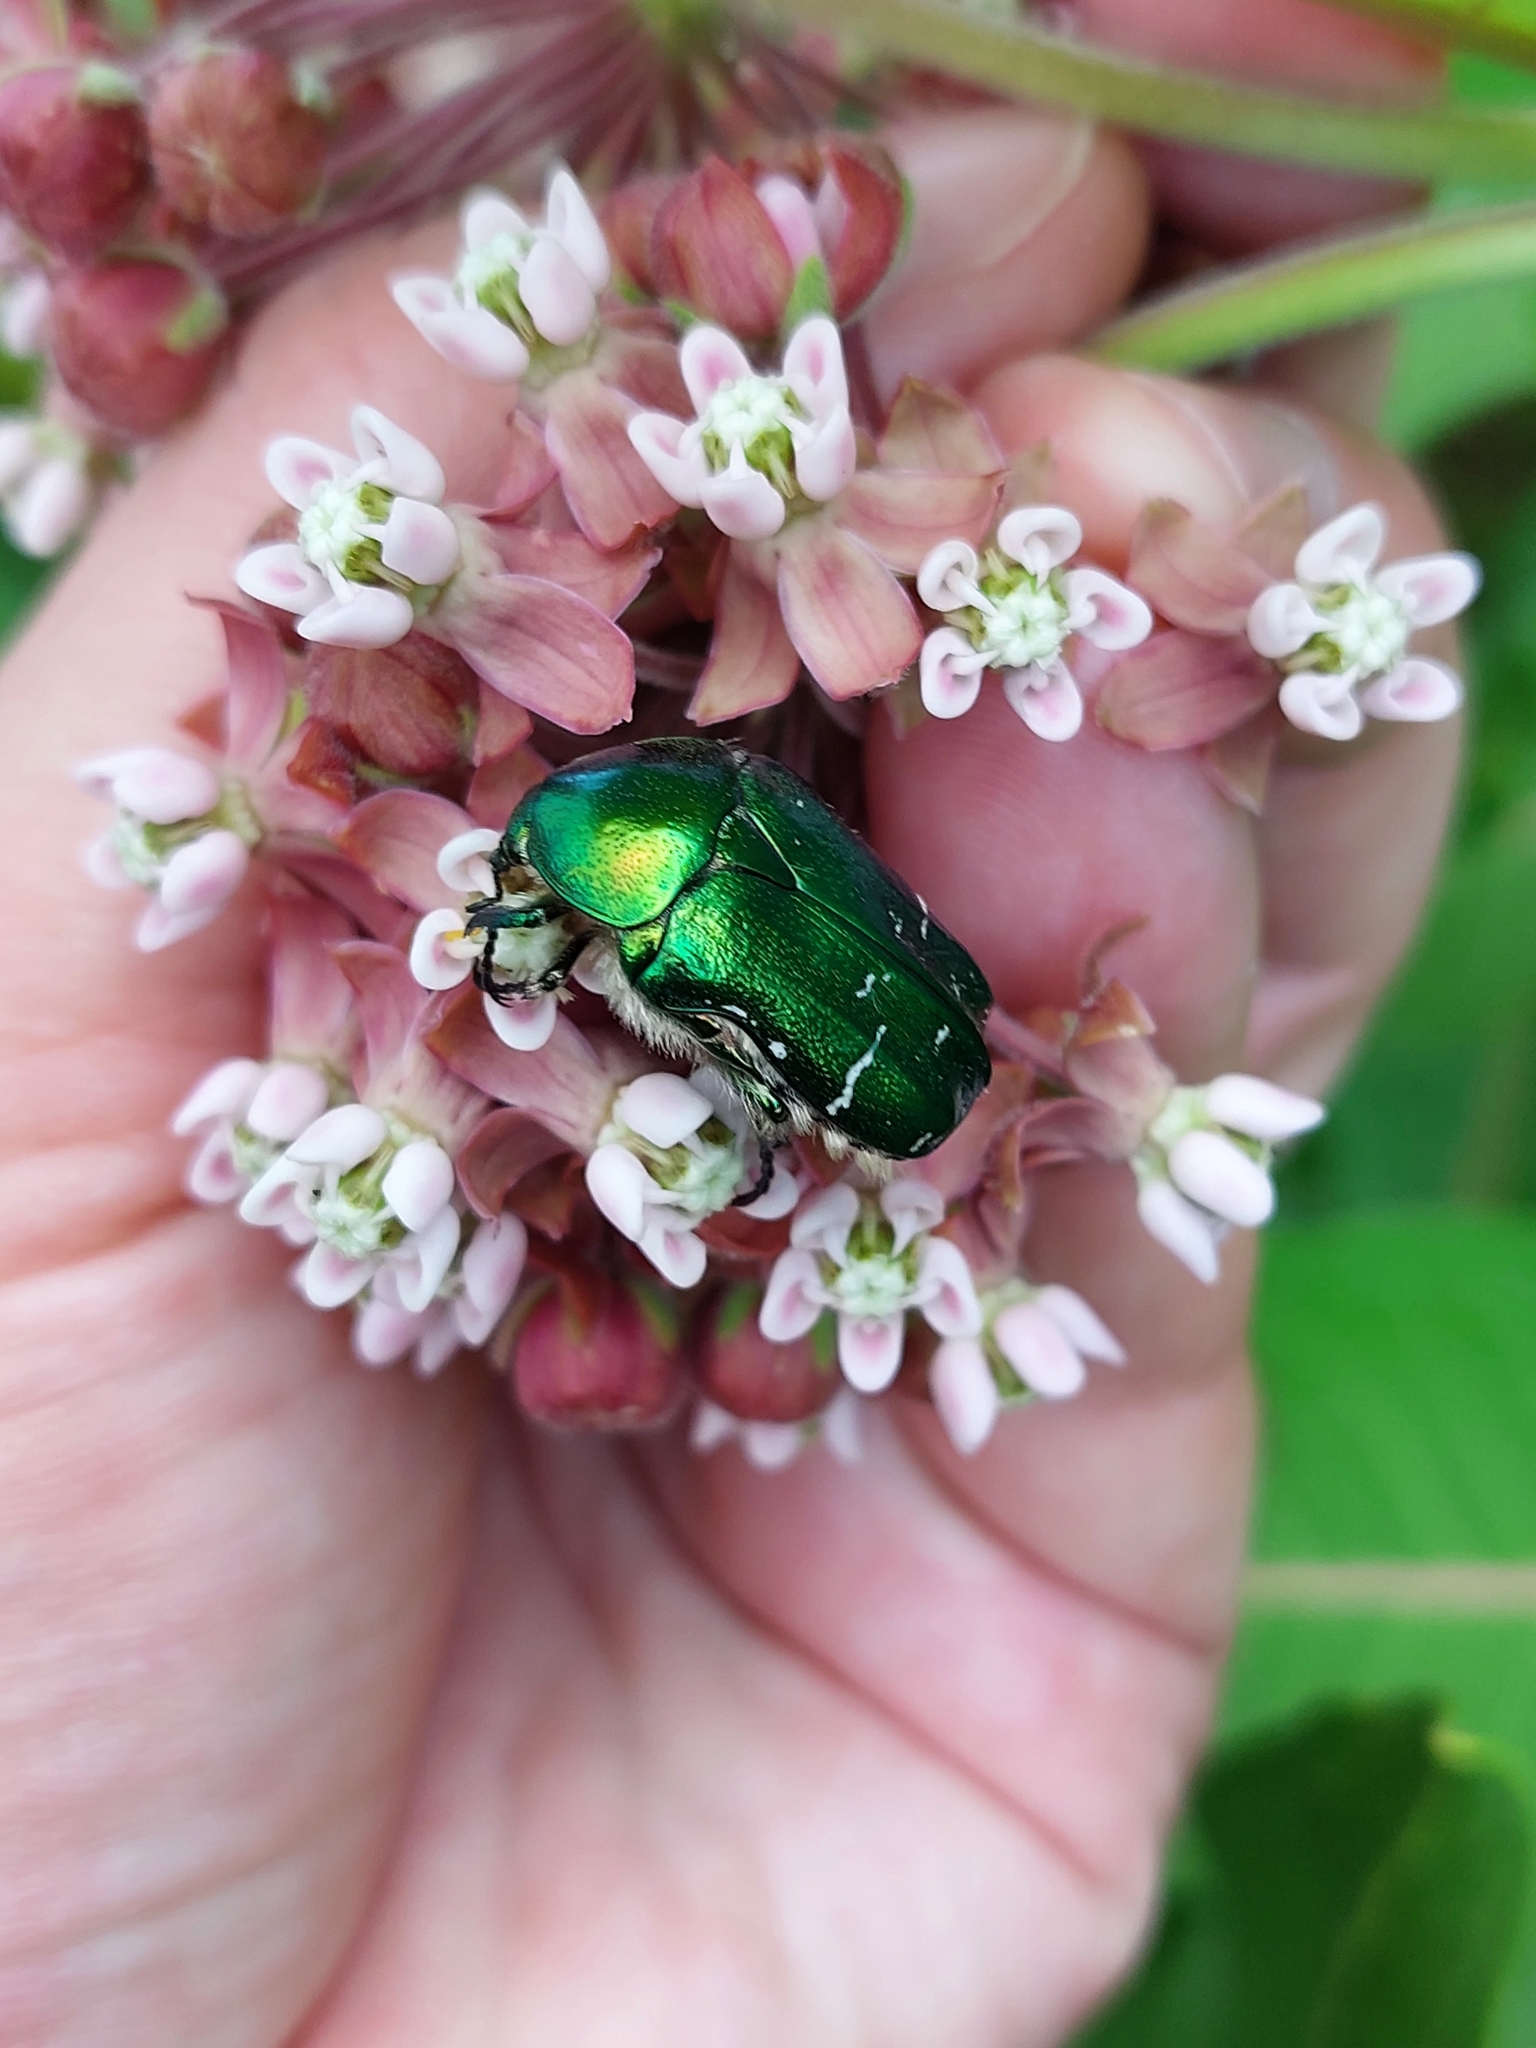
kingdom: Animalia
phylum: Arthropoda
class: Insecta
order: Coleoptera
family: Scarabaeidae
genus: Cetonia
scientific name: Cetonia aurata
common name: Rose chafer
